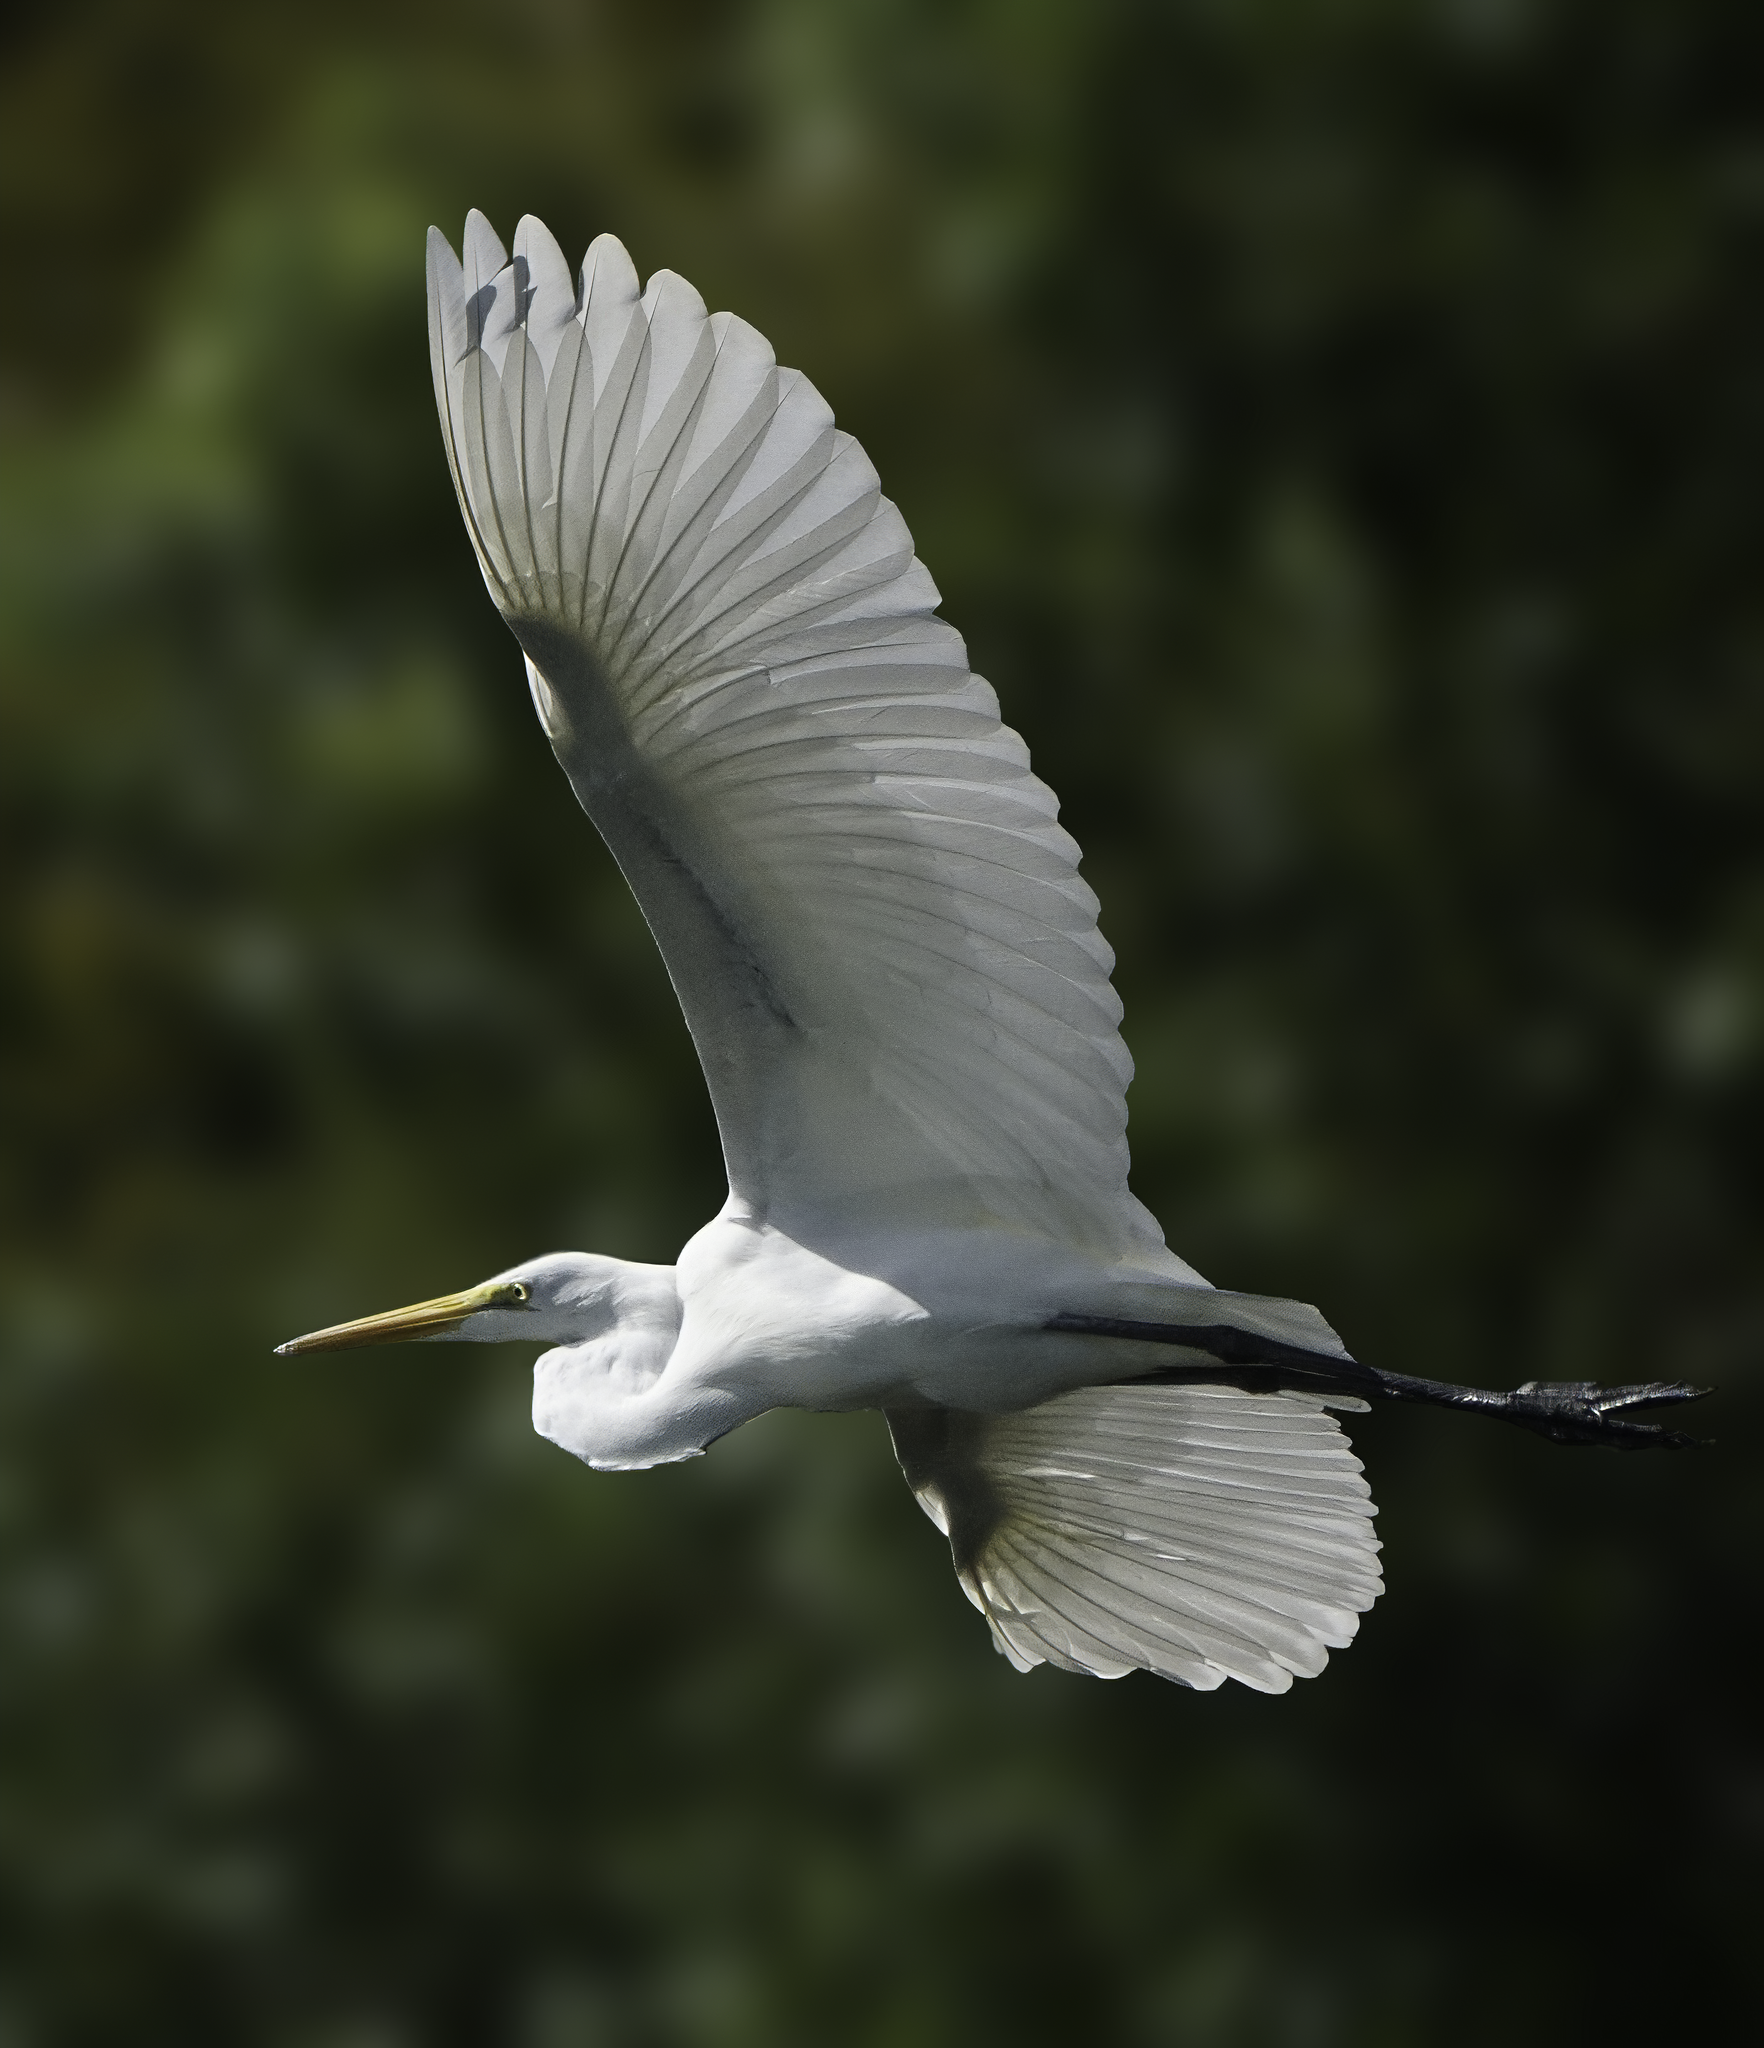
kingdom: Animalia
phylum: Chordata
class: Aves
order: Pelecaniformes
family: Ardeidae
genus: Ardea
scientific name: Ardea alba
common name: Great egret
